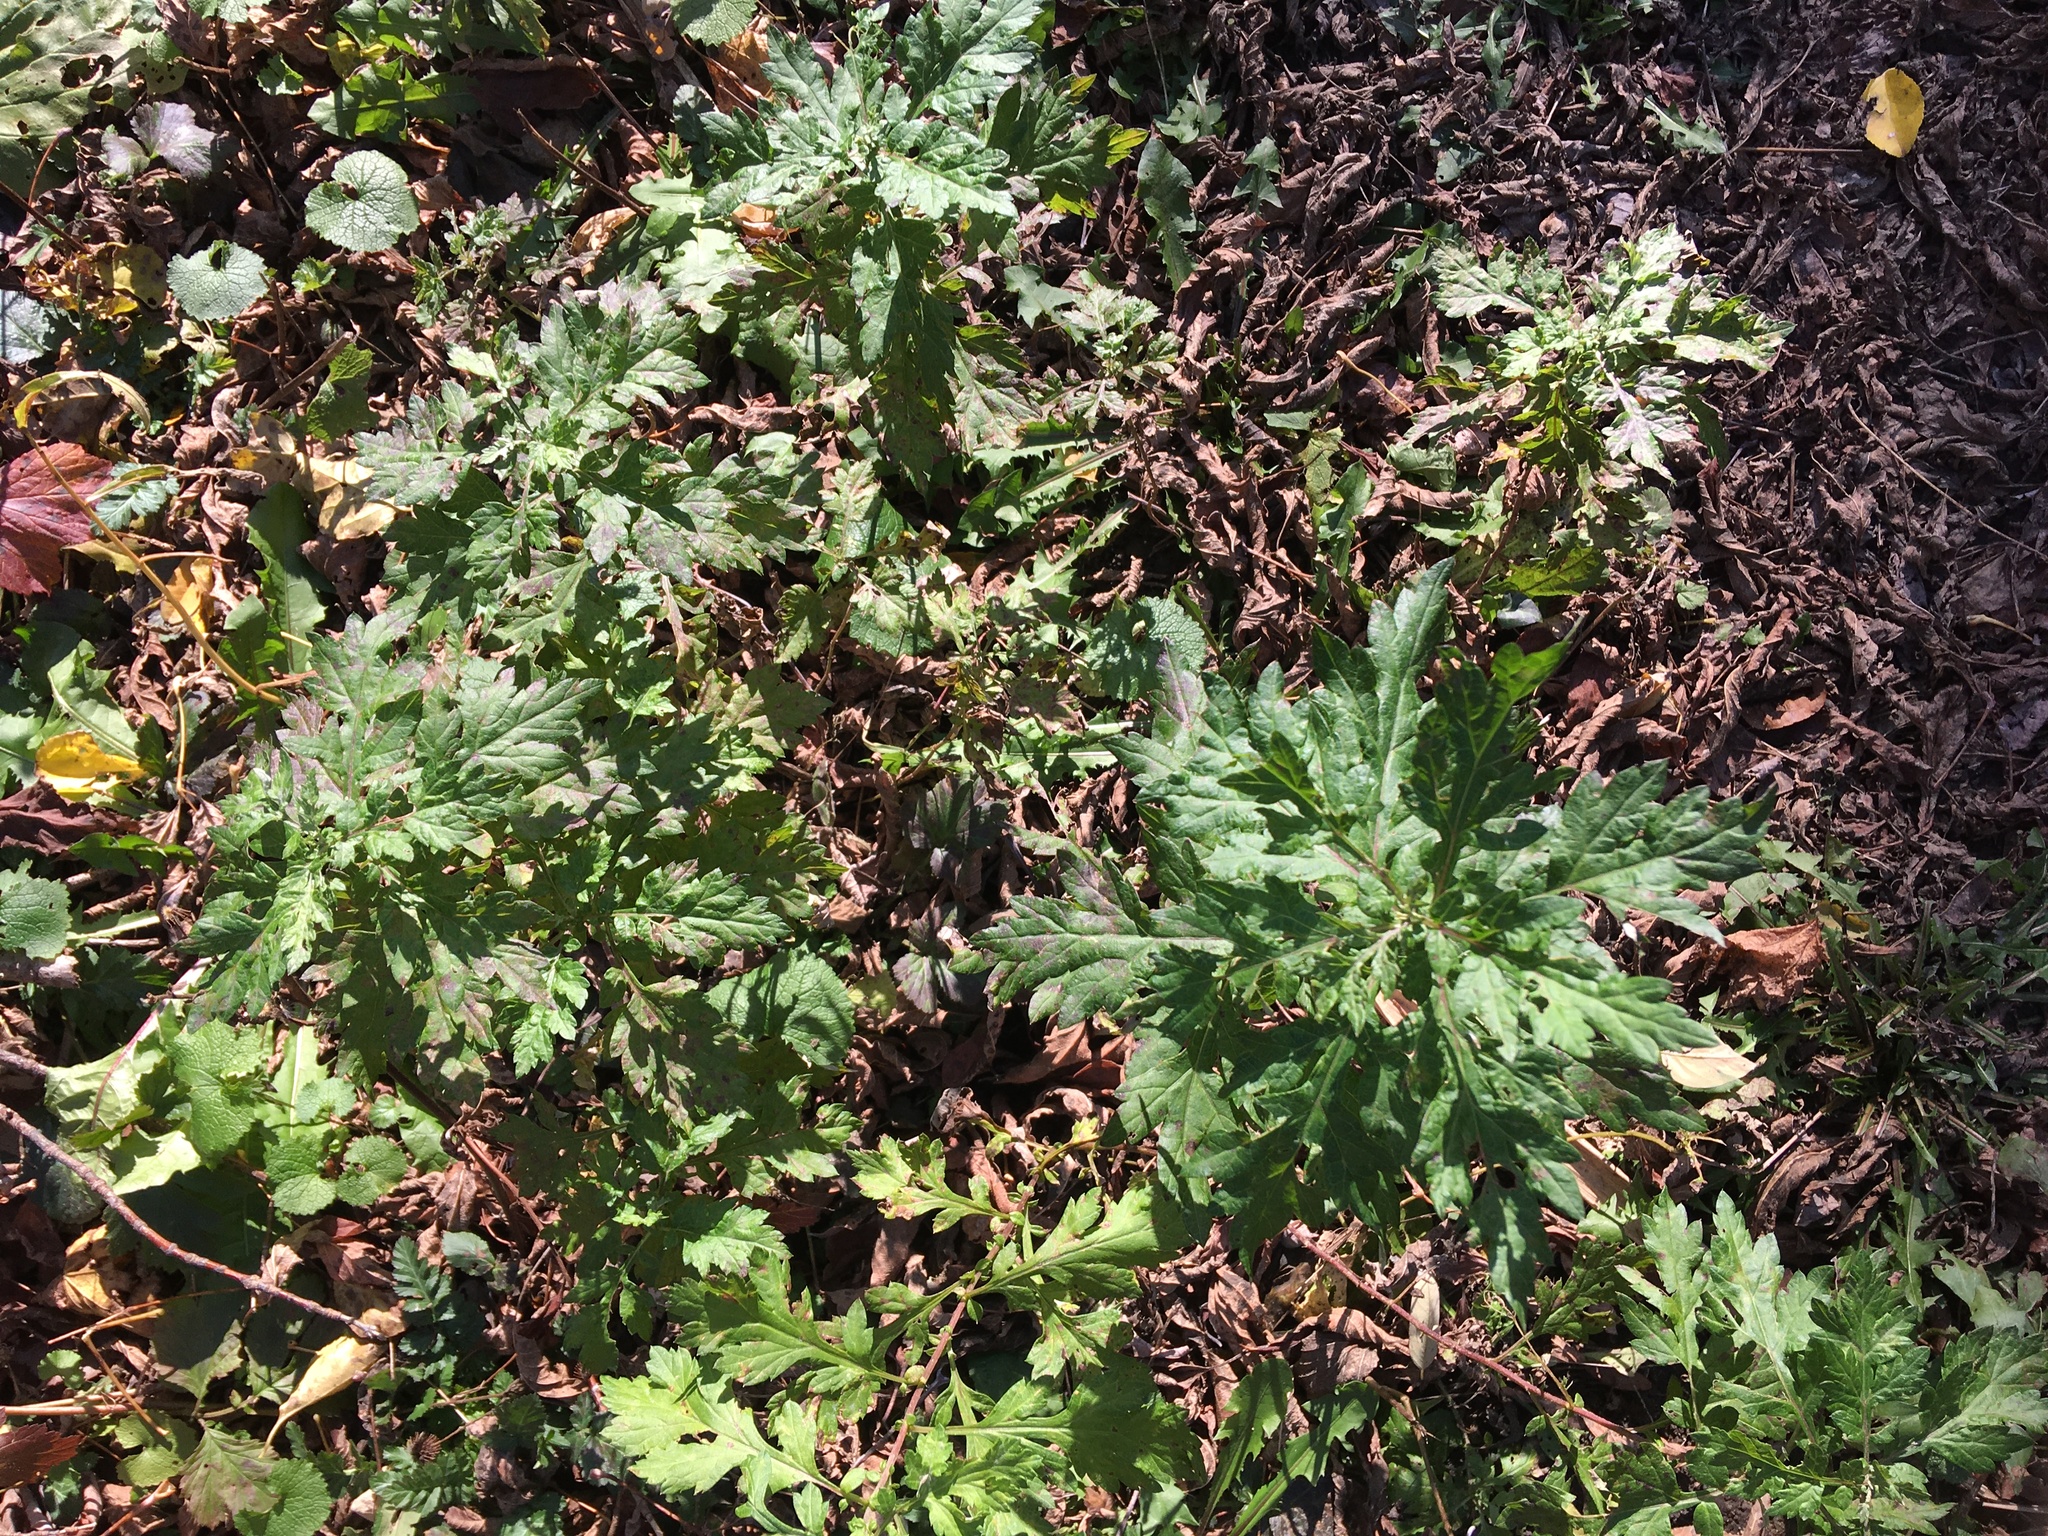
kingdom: Plantae
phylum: Tracheophyta
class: Magnoliopsida
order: Asterales
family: Asteraceae
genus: Artemisia
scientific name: Artemisia vulgaris
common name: Mugwort
